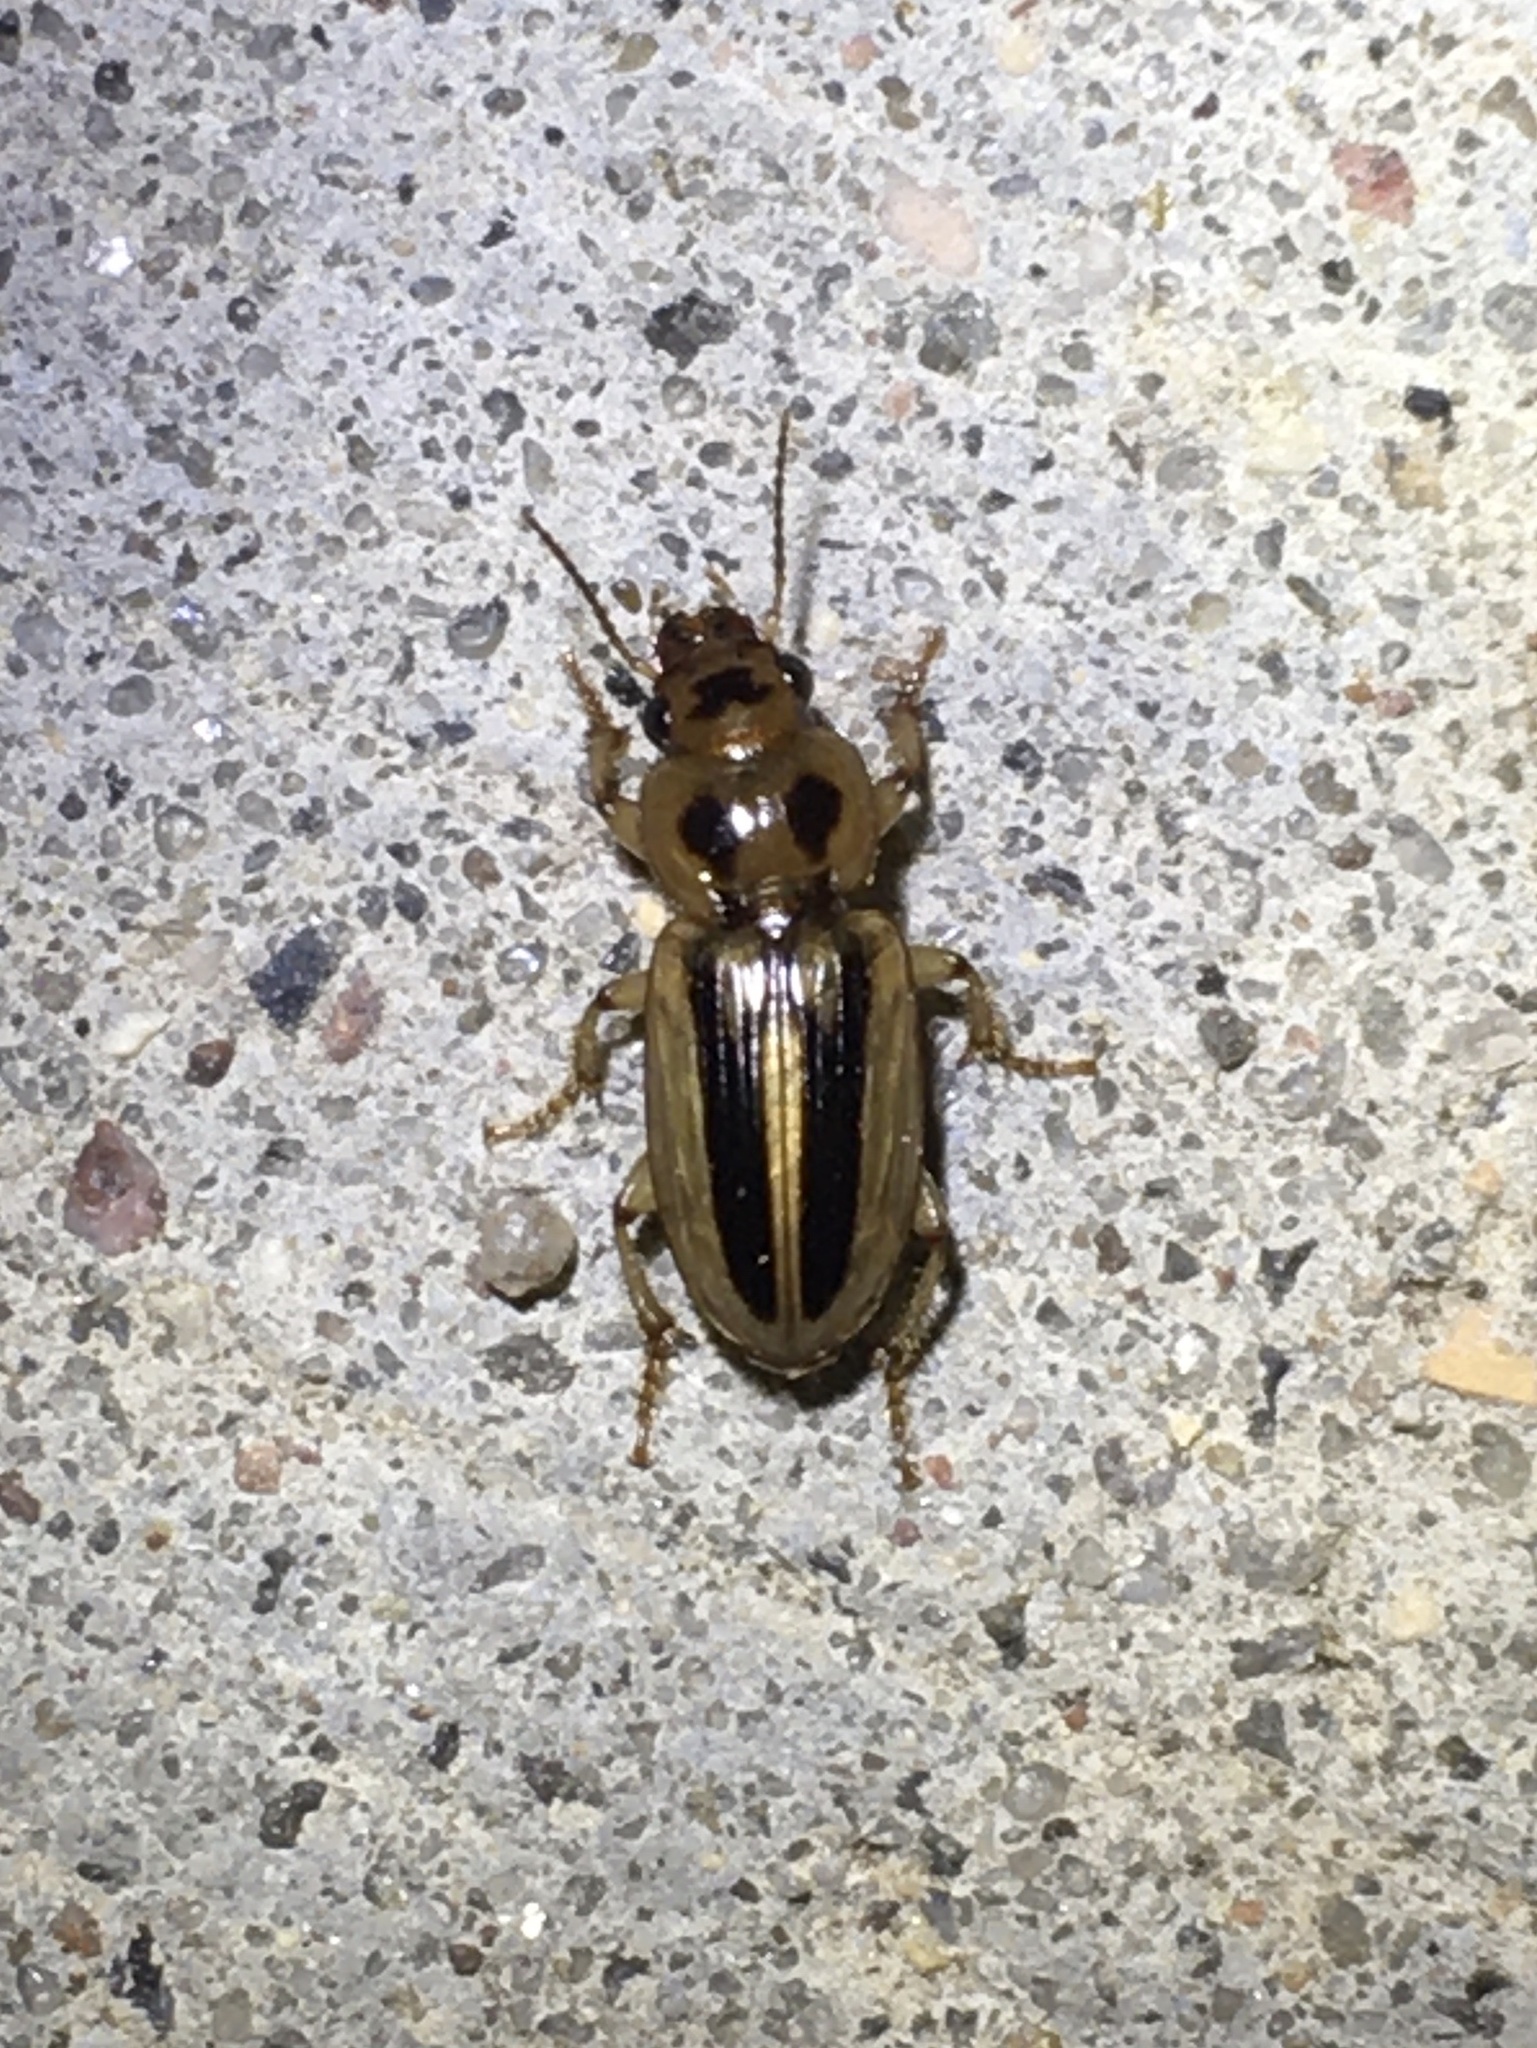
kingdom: Animalia
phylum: Arthropoda
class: Insecta
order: Coleoptera
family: Carabidae
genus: Stenolophus
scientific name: Stenolophus lineola
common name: Lined stenolophus
